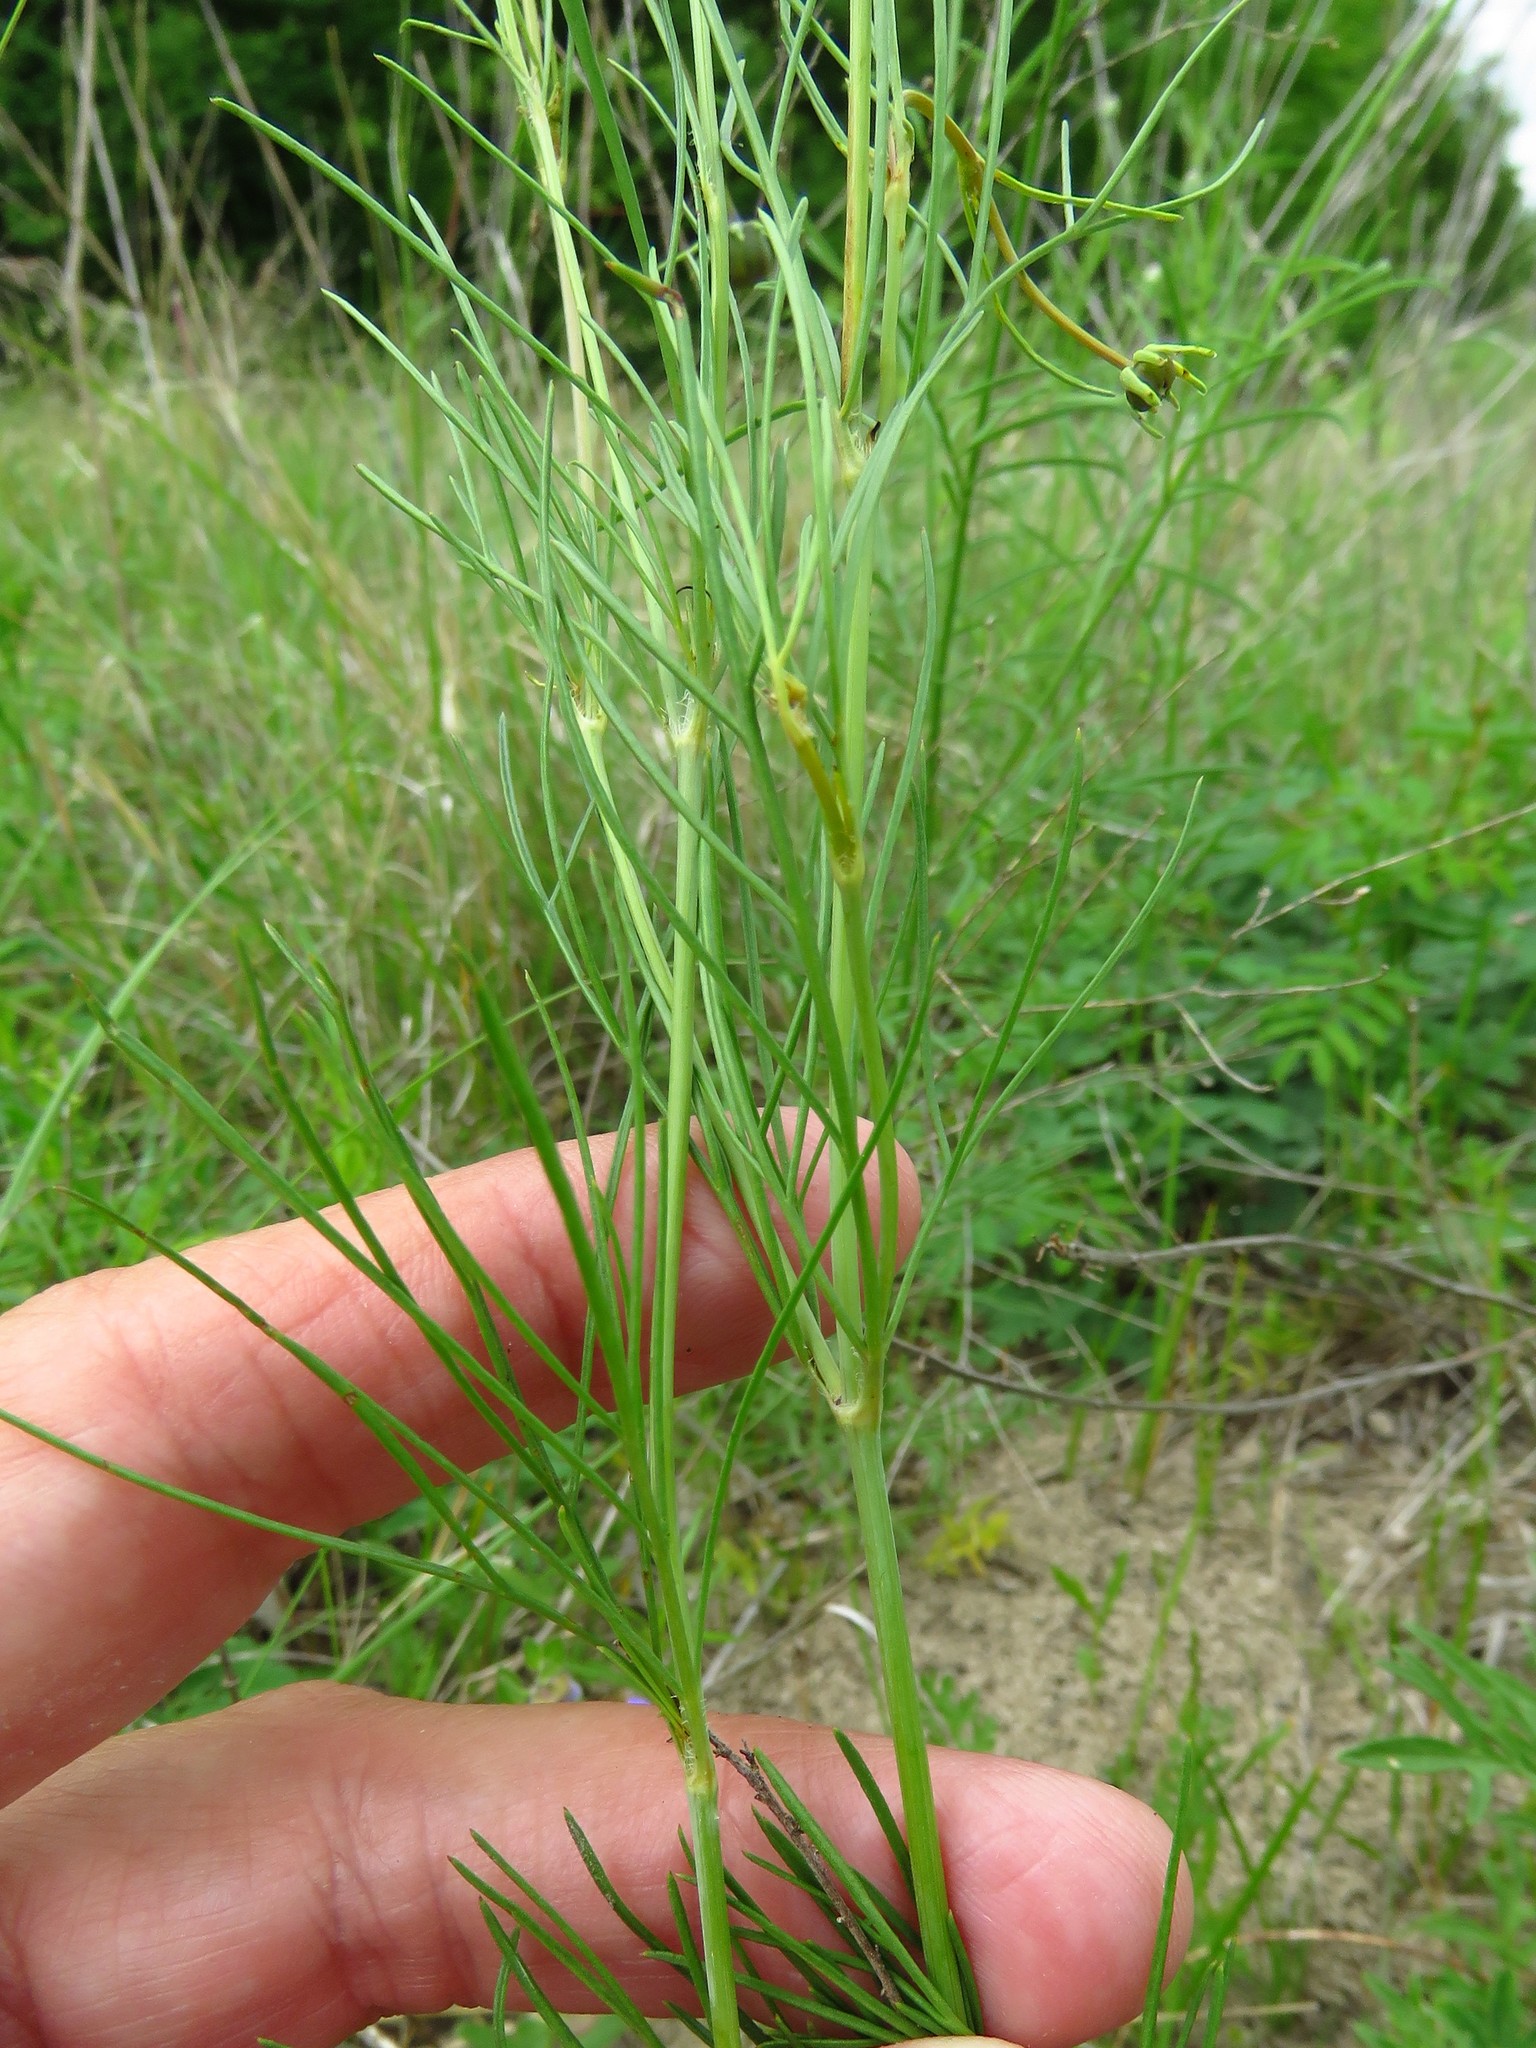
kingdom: Plantae
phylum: Tracheophyta
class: Magnoliopsida
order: Asterales
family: Asteraceae
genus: Thelesperma
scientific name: Thelesperma filifolium
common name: Stiff greenthread
